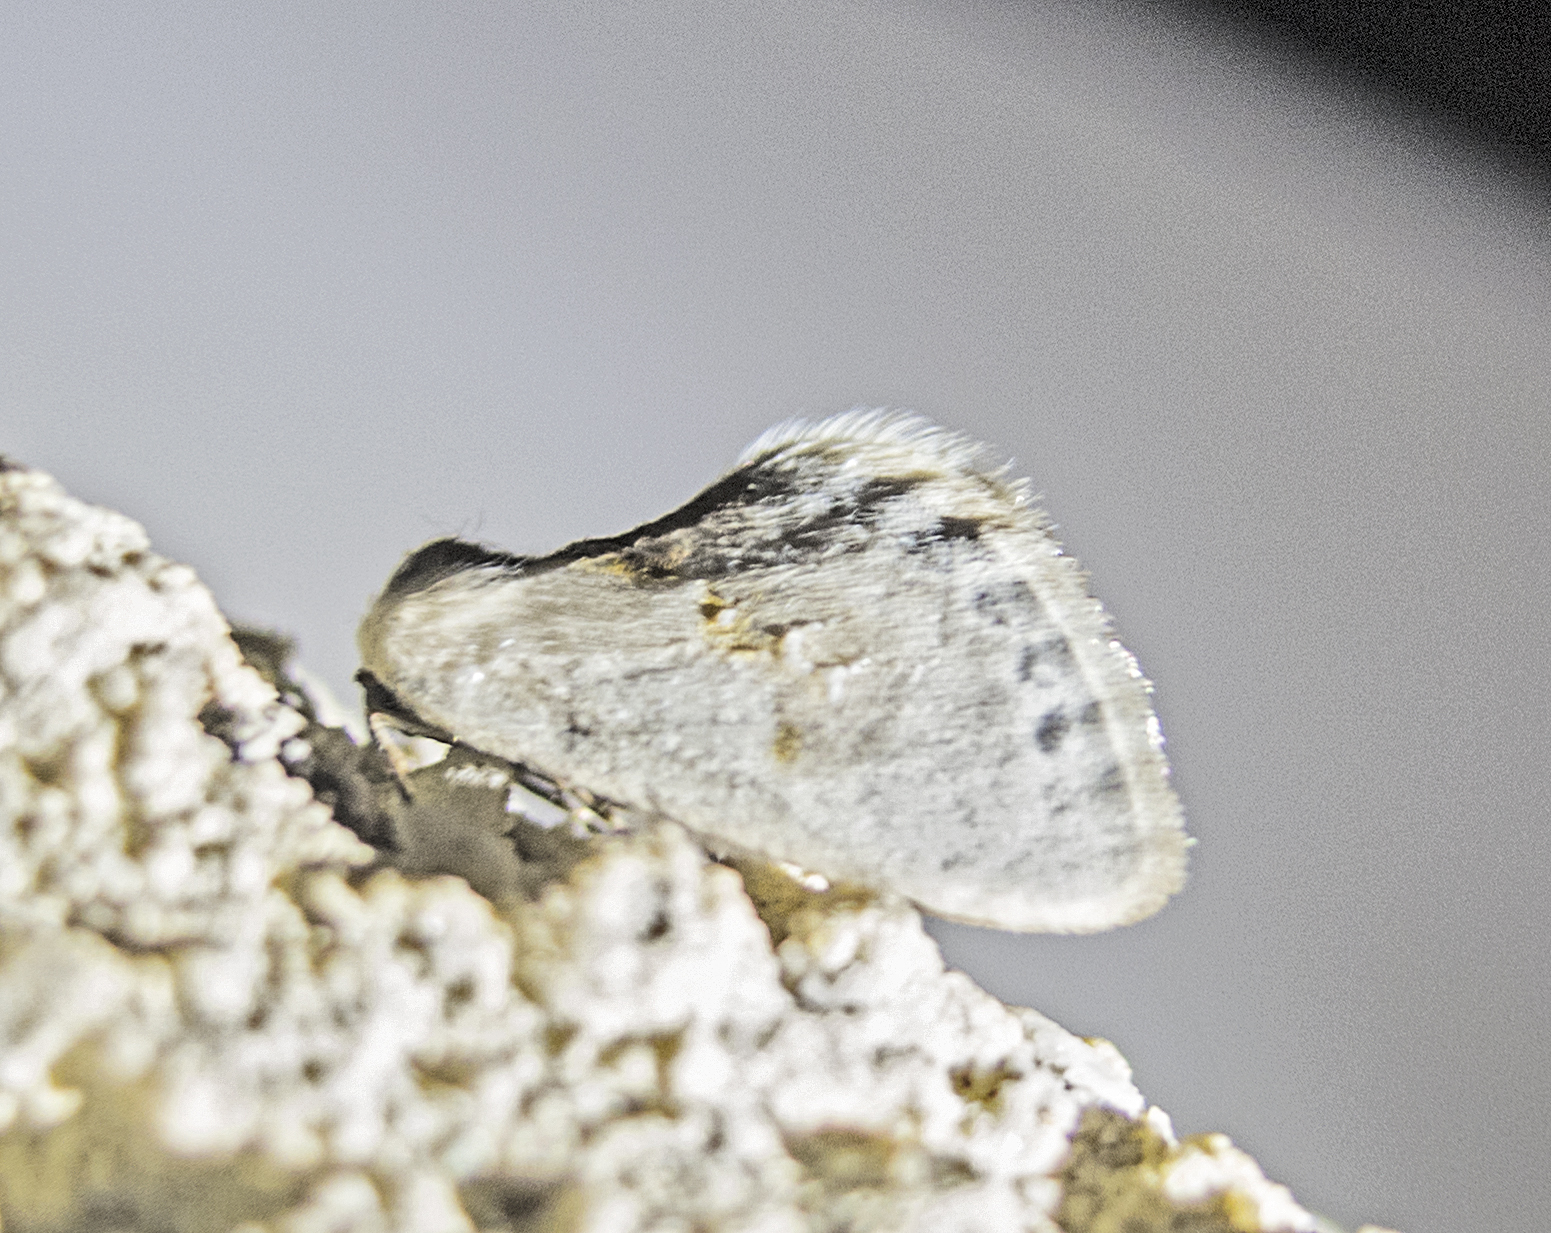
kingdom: Animalia
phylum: Arthropoda
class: Insecta
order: Lepidoptera
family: Drepanidae
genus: Cilix
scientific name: Cilix glaucata
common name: Chinese character
